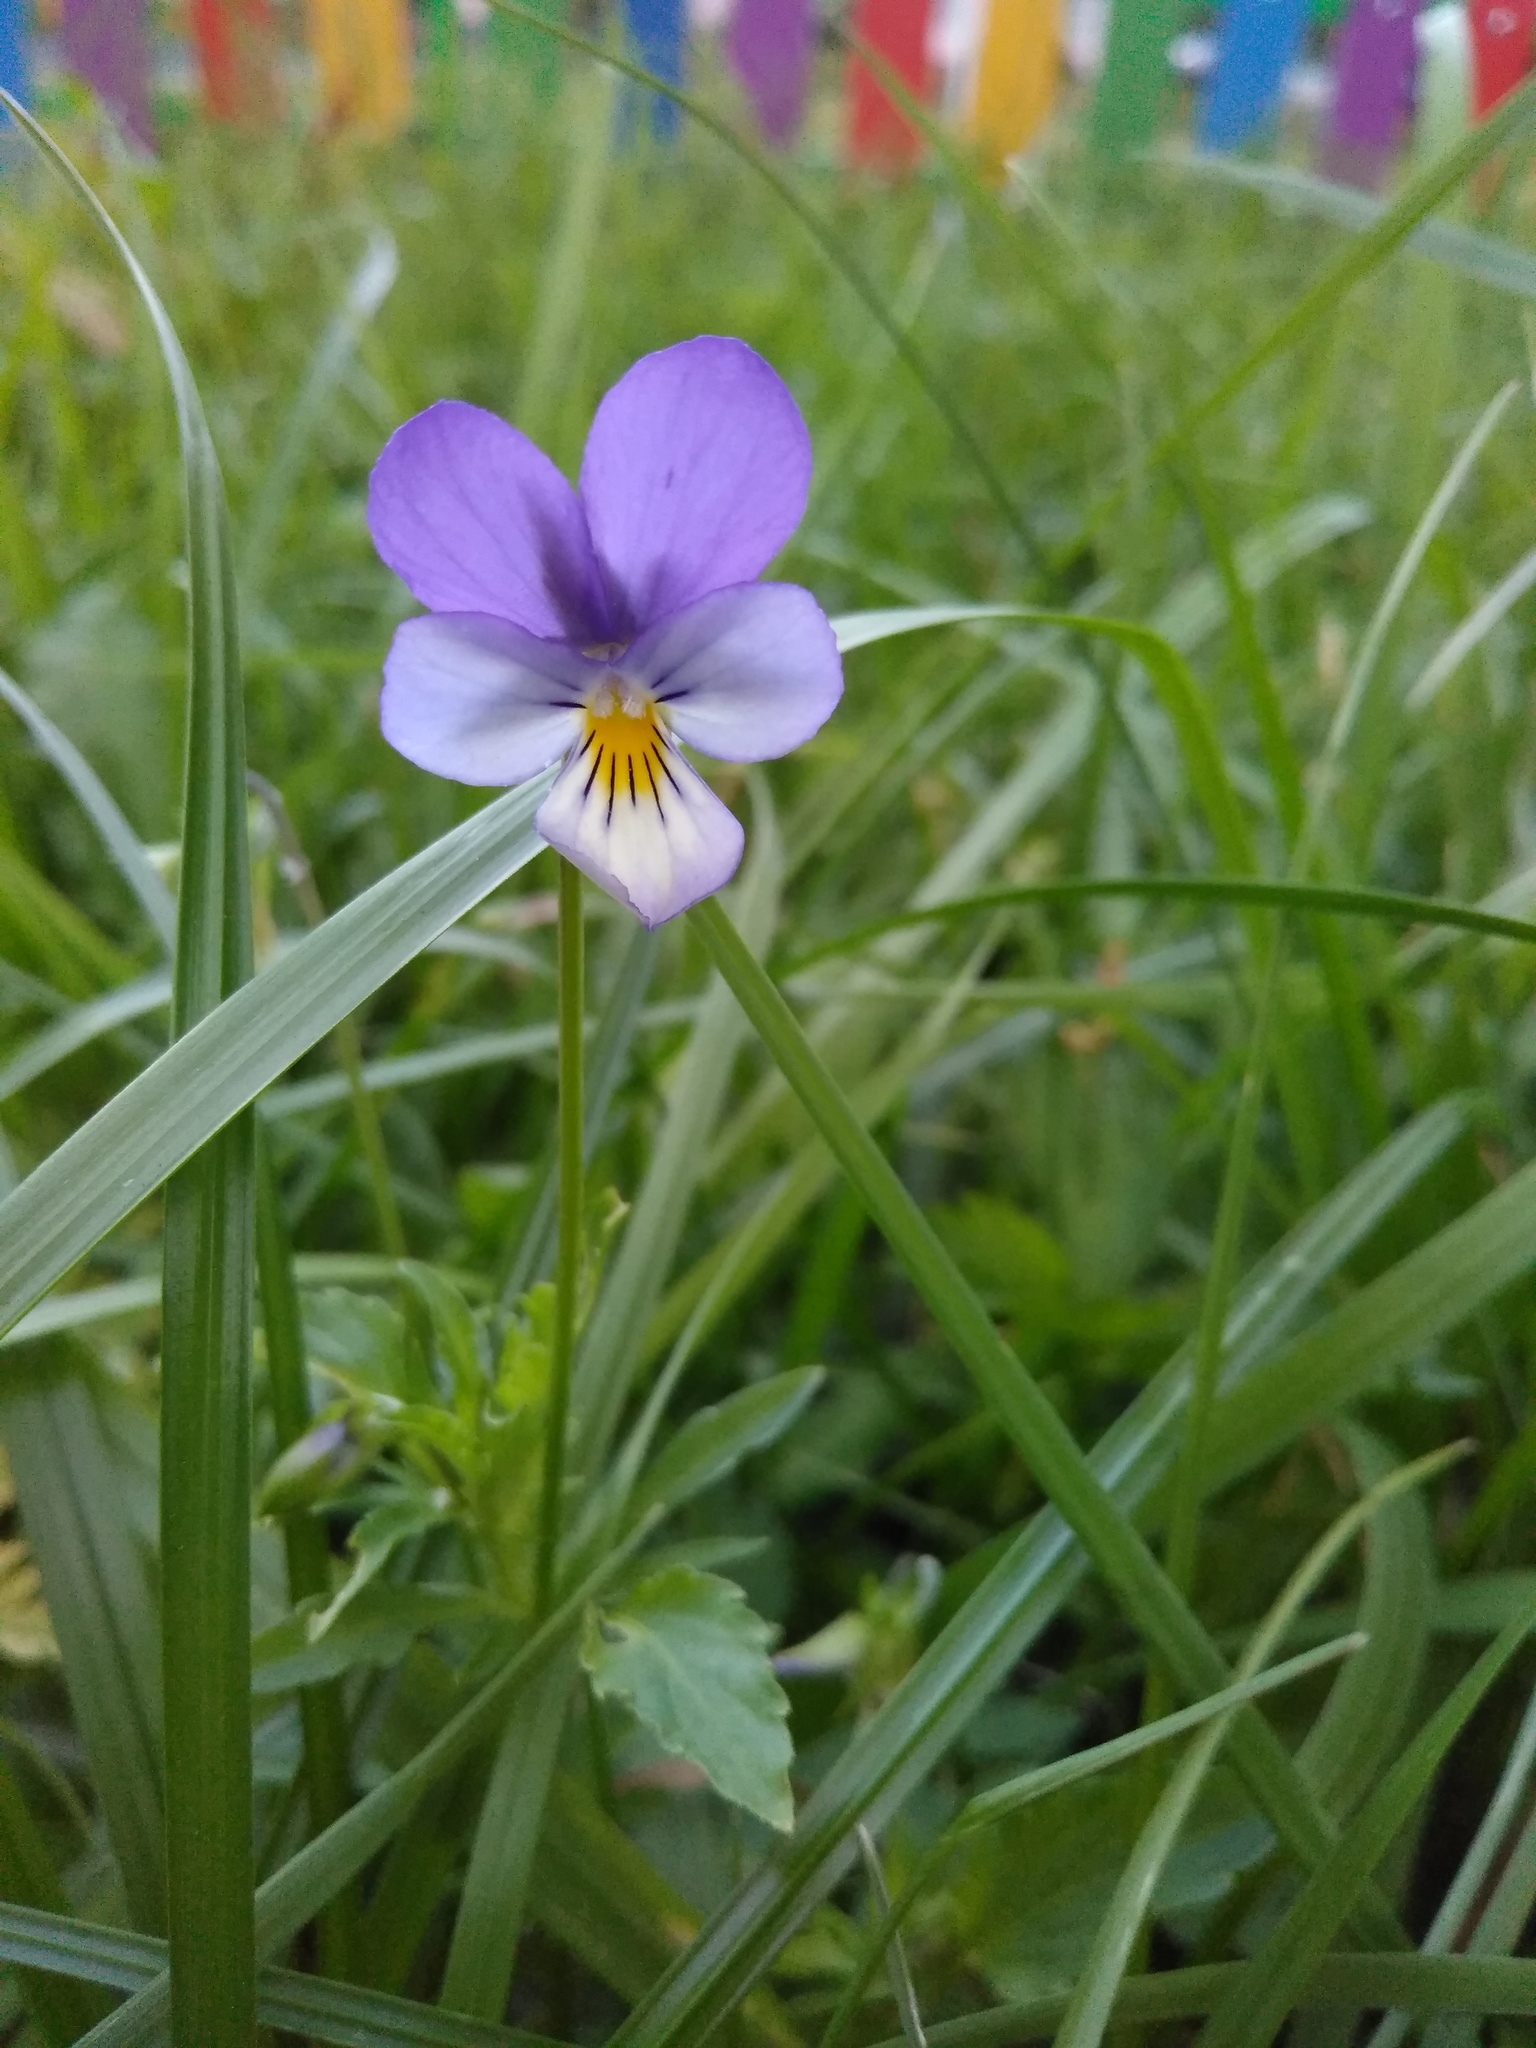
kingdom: Plantae
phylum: Tracheophyta
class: Magnoliopsida
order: Malpighiales
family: Violaceae
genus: Viola
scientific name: Viola tricolor
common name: Pansy
